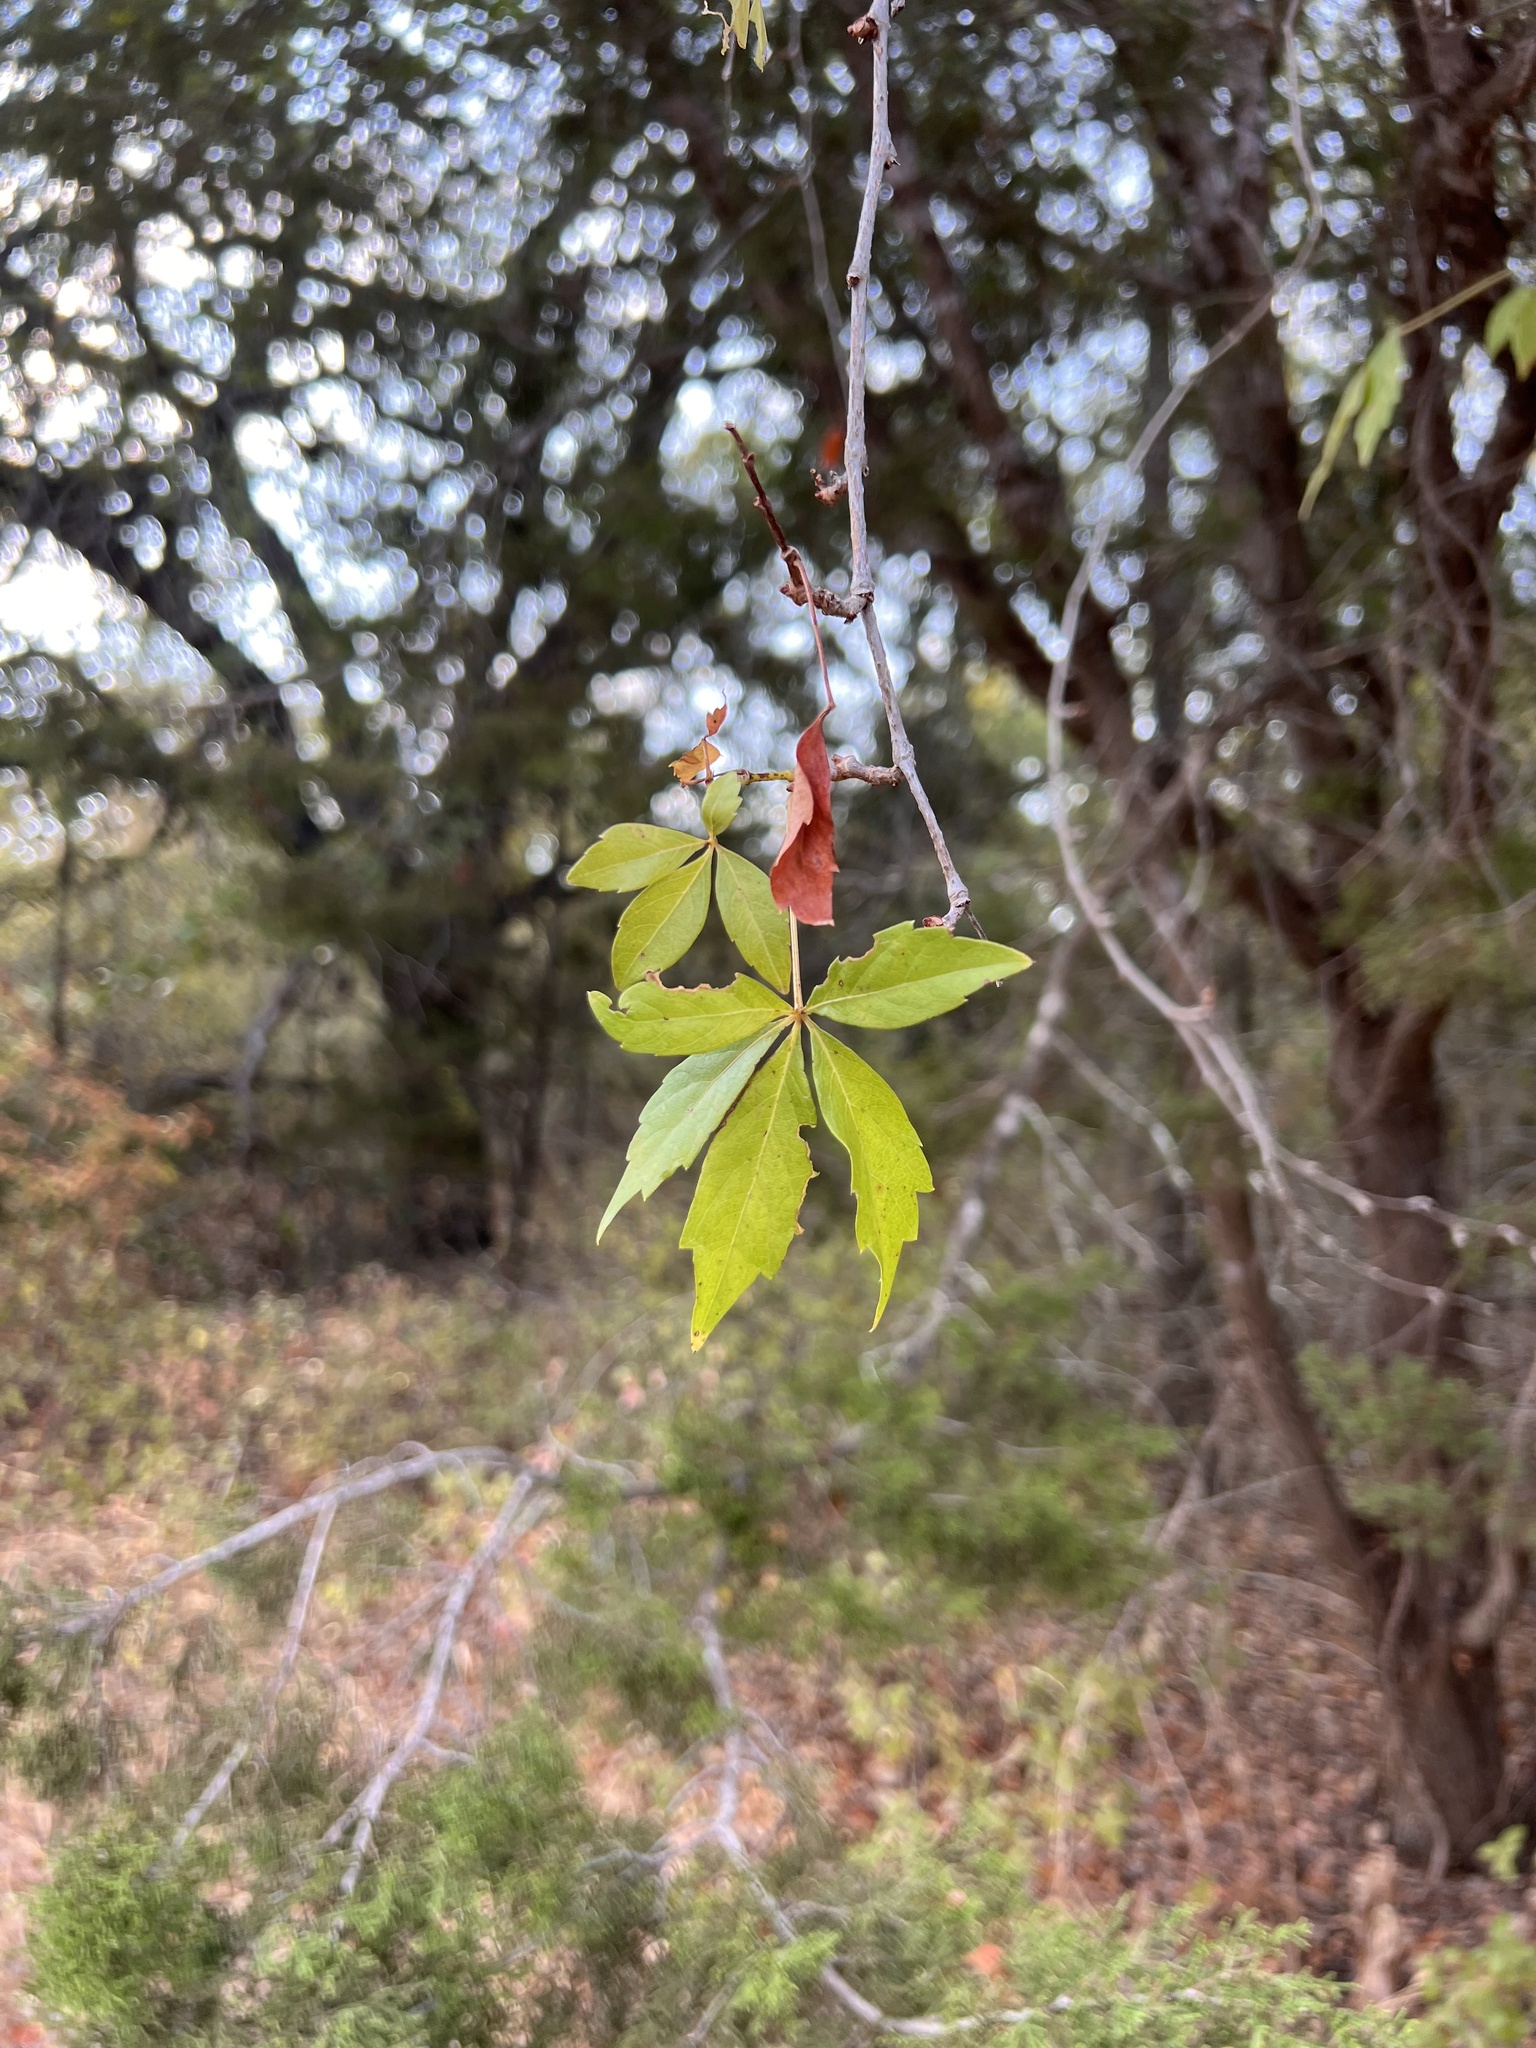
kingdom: Plantae
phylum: Tracheophyta
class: Magnoliopsida
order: Vitales
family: Vitaceae
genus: Parthenocissus
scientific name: Parthenocissus heptaphylla
